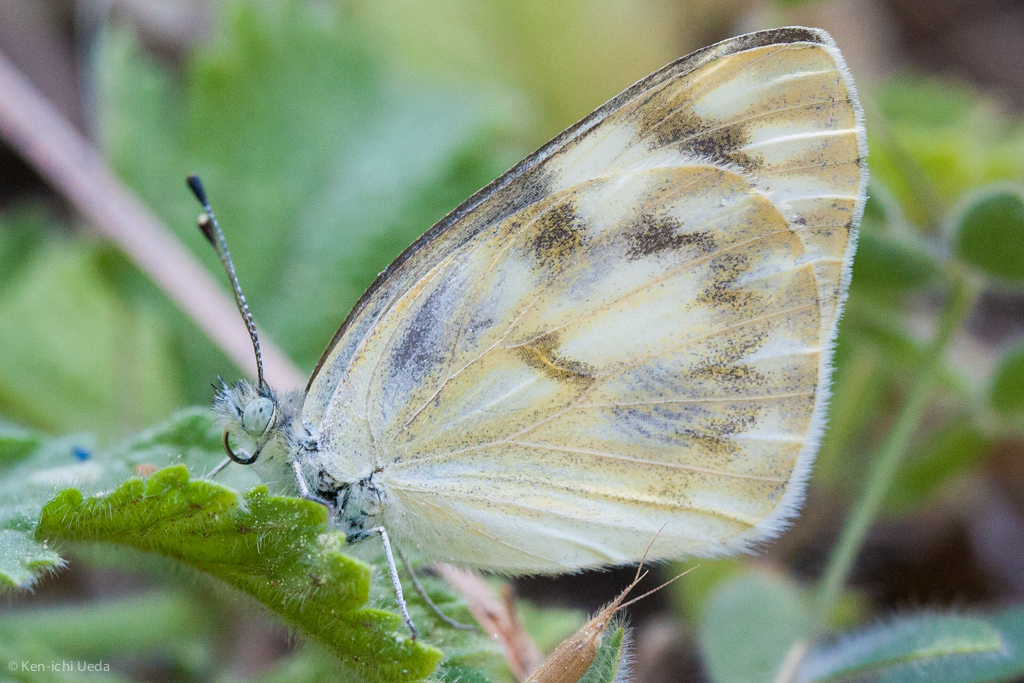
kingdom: Animalia
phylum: Arthropoda
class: Insecta
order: Lepidoptera
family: Pieridae
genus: Pontia
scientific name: Pontia protodice
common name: Checkered white
